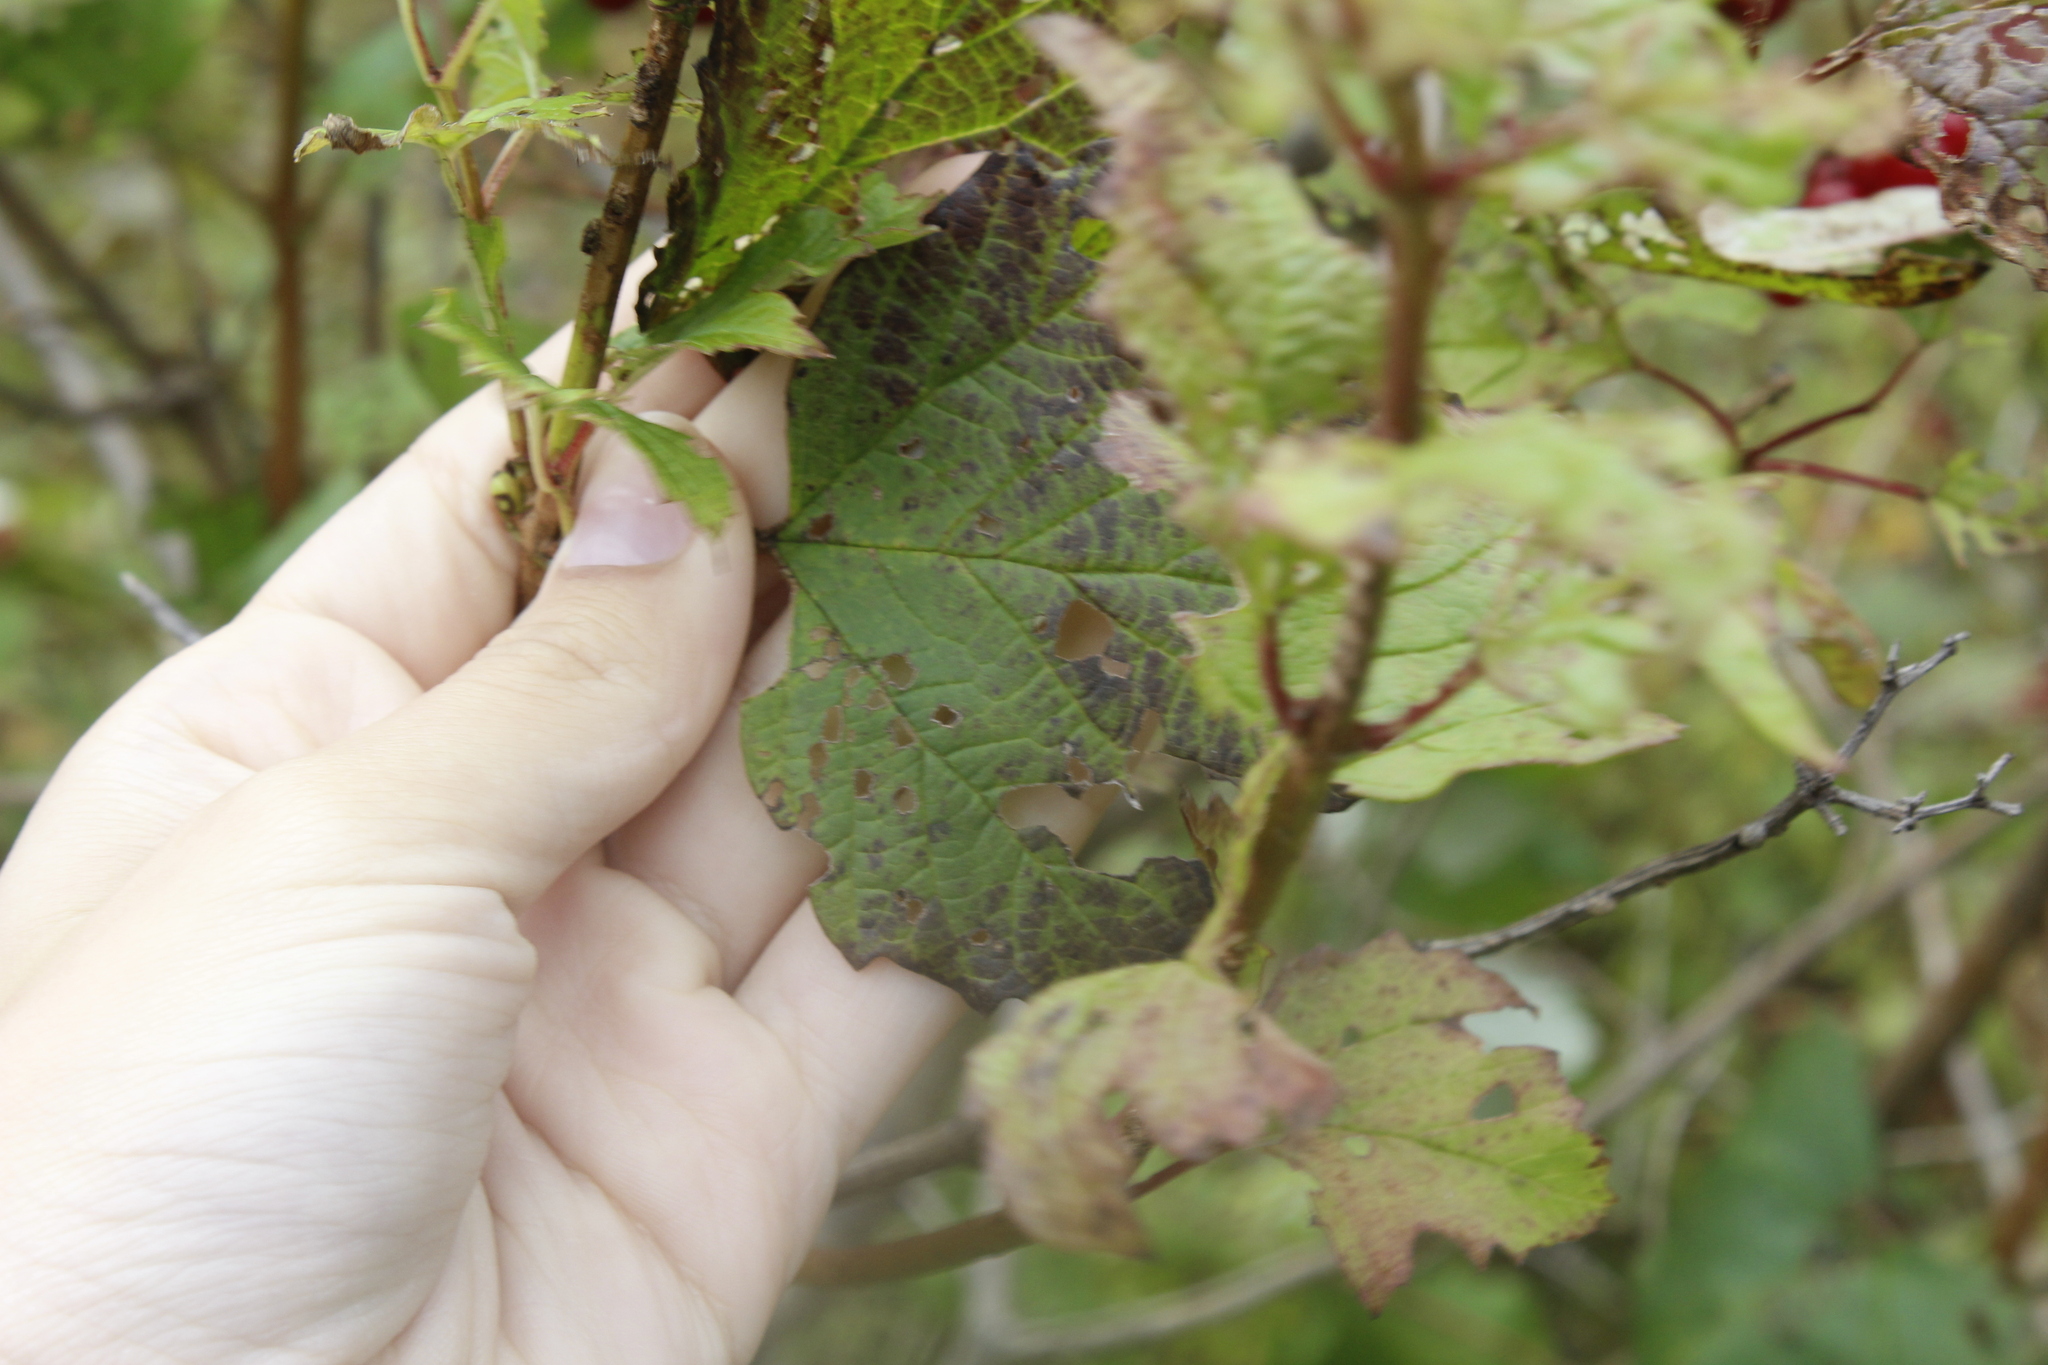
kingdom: Plantae
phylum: Tracheophyta
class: Magnoliopsida
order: Dipsacales
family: Viburnaceae
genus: Viburnum
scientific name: Viburnum opulus
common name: Guelder-rose
